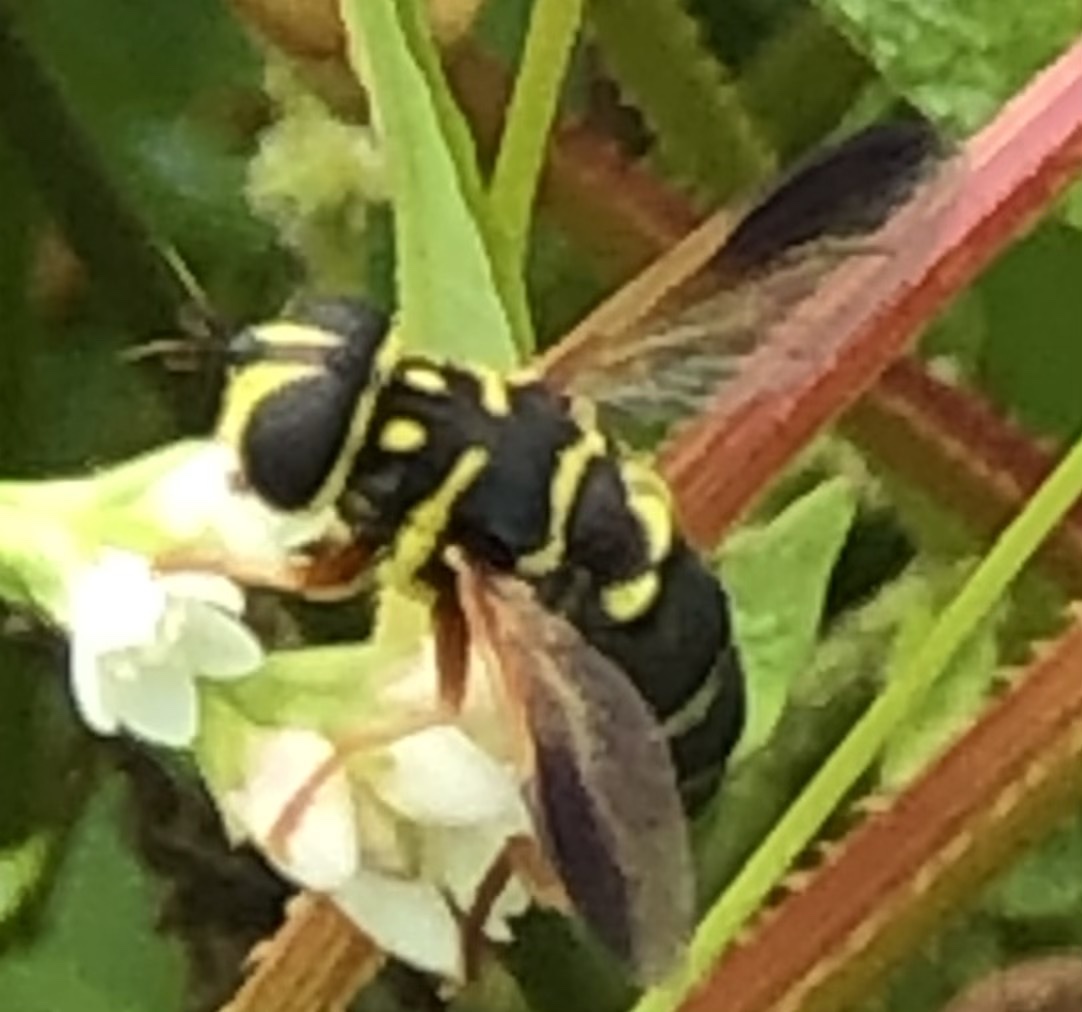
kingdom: Animalia
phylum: Arthropoda
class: Insecta
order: Diptera
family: Syrphidae
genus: Meromacrus
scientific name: Meromacrus acutus
